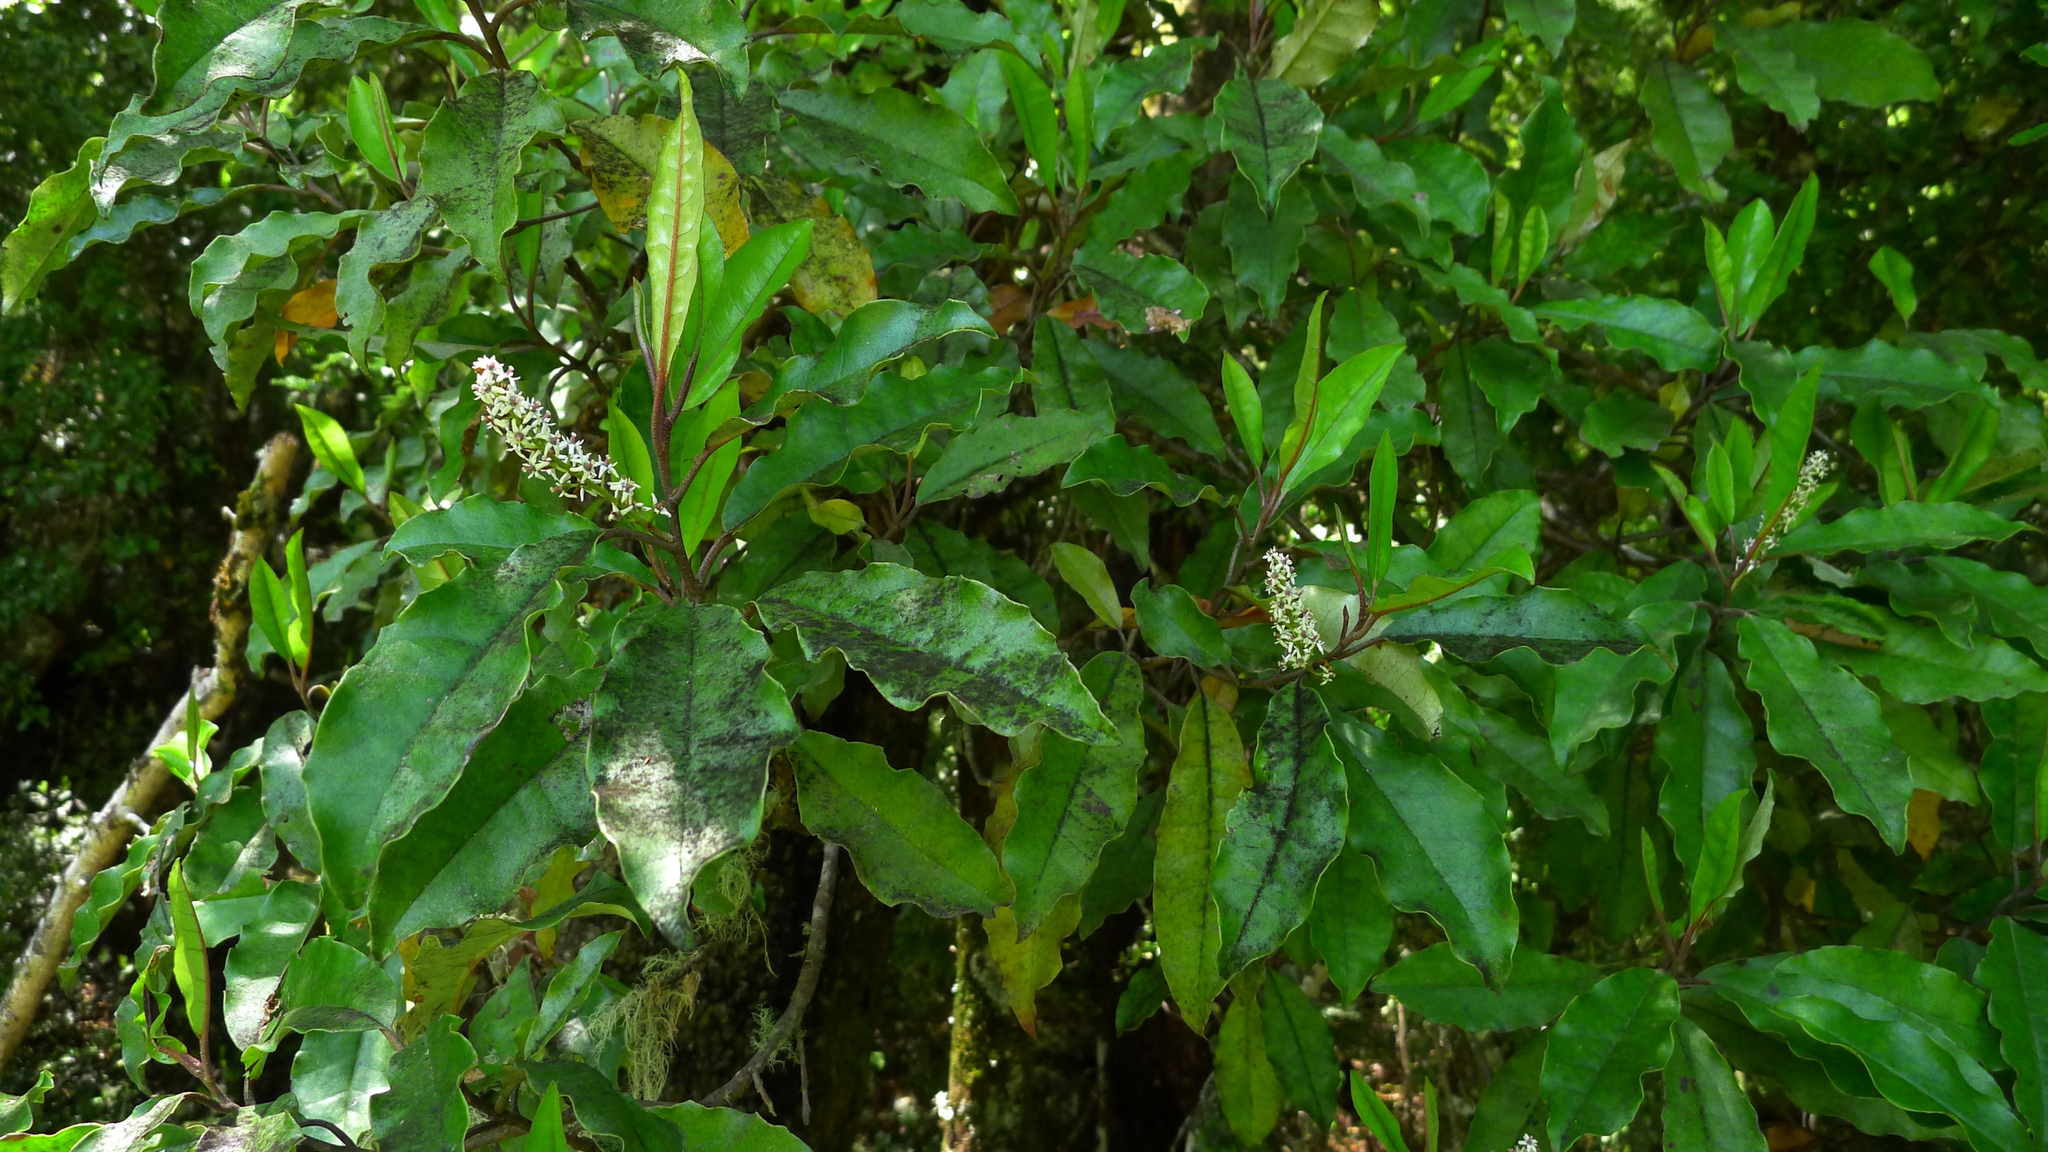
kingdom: Plantae
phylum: Tracheophyta
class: Magnoliopsida
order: Paracryphiales
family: Paracryphiaceae
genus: Quintinia
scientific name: Quintinia serrata
